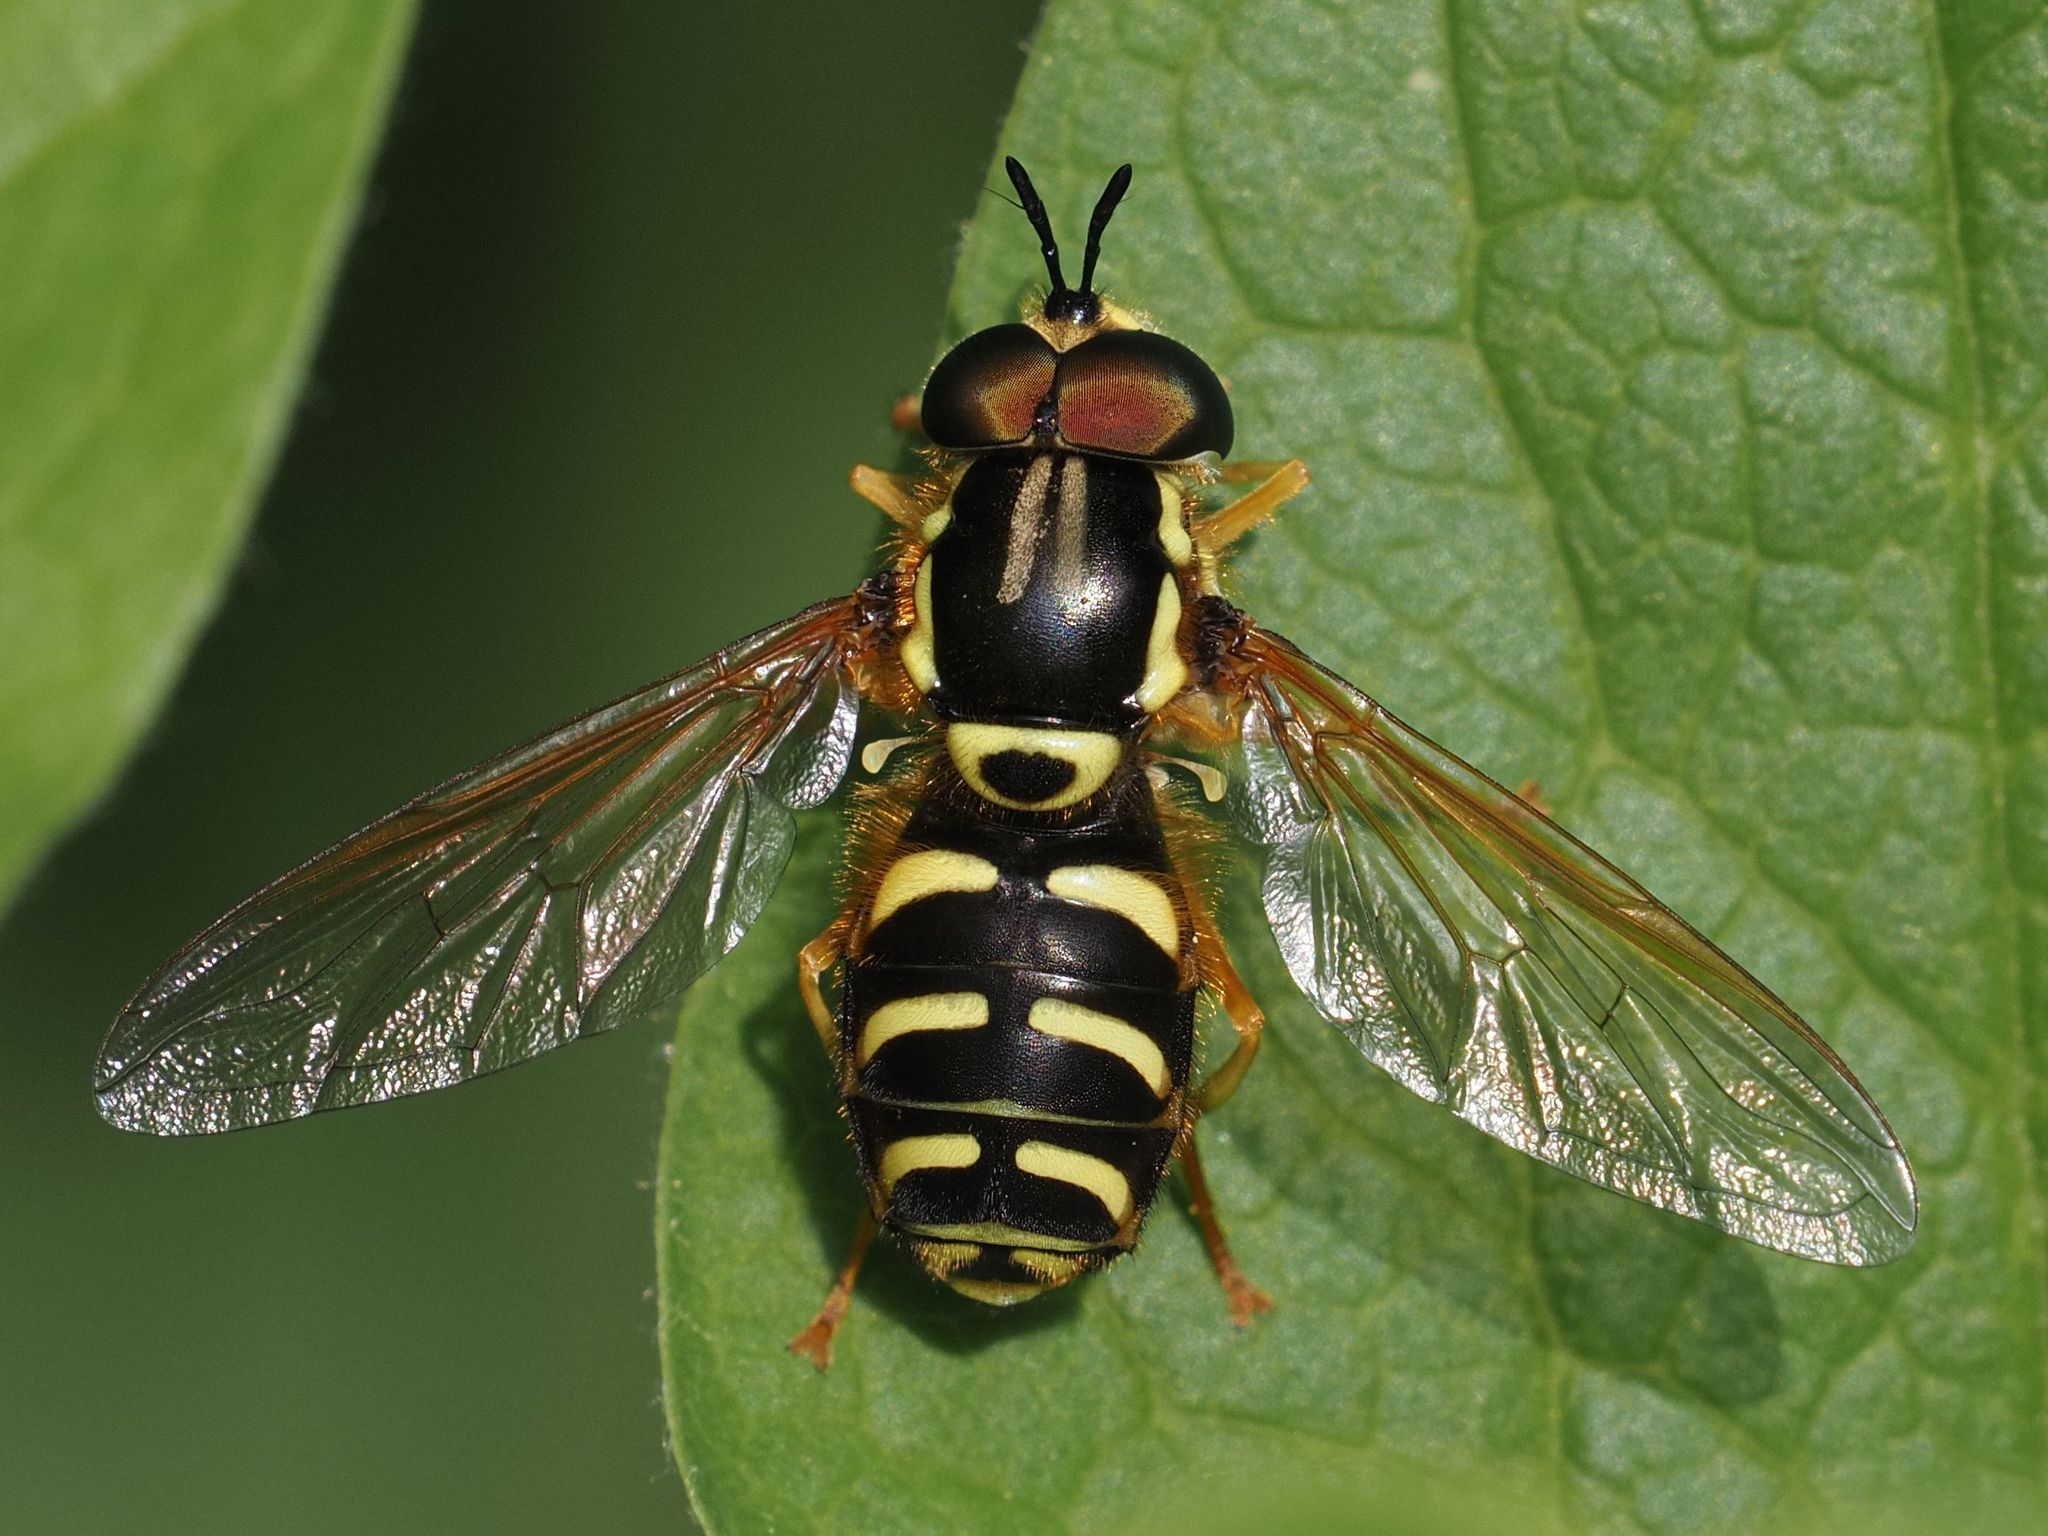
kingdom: Animalia
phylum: Arthropoda
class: Insecta
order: Diptera
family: Syrphidae
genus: Chrysotoxum
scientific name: Chrysotoxum elegans
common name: Zipperback
